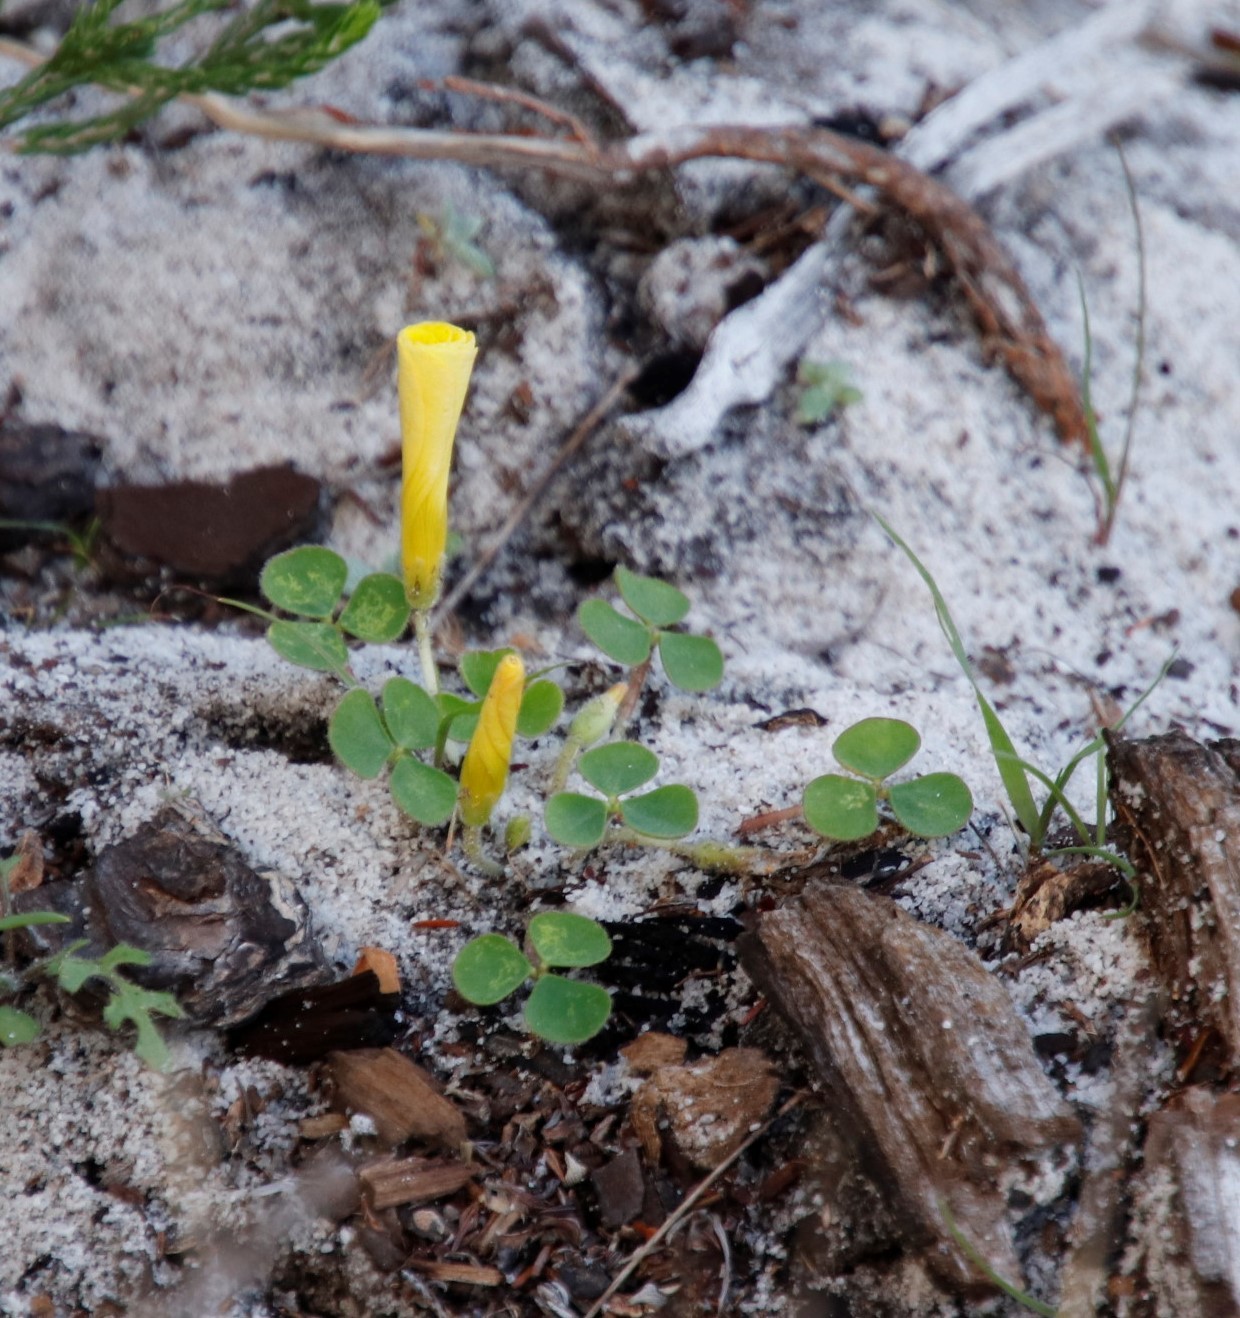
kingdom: Plantae
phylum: Tracheophyta
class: Magnoliopsida
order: Oxalidales
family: Oxalidaceae
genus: Oxalis
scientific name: Oxalis luteola
